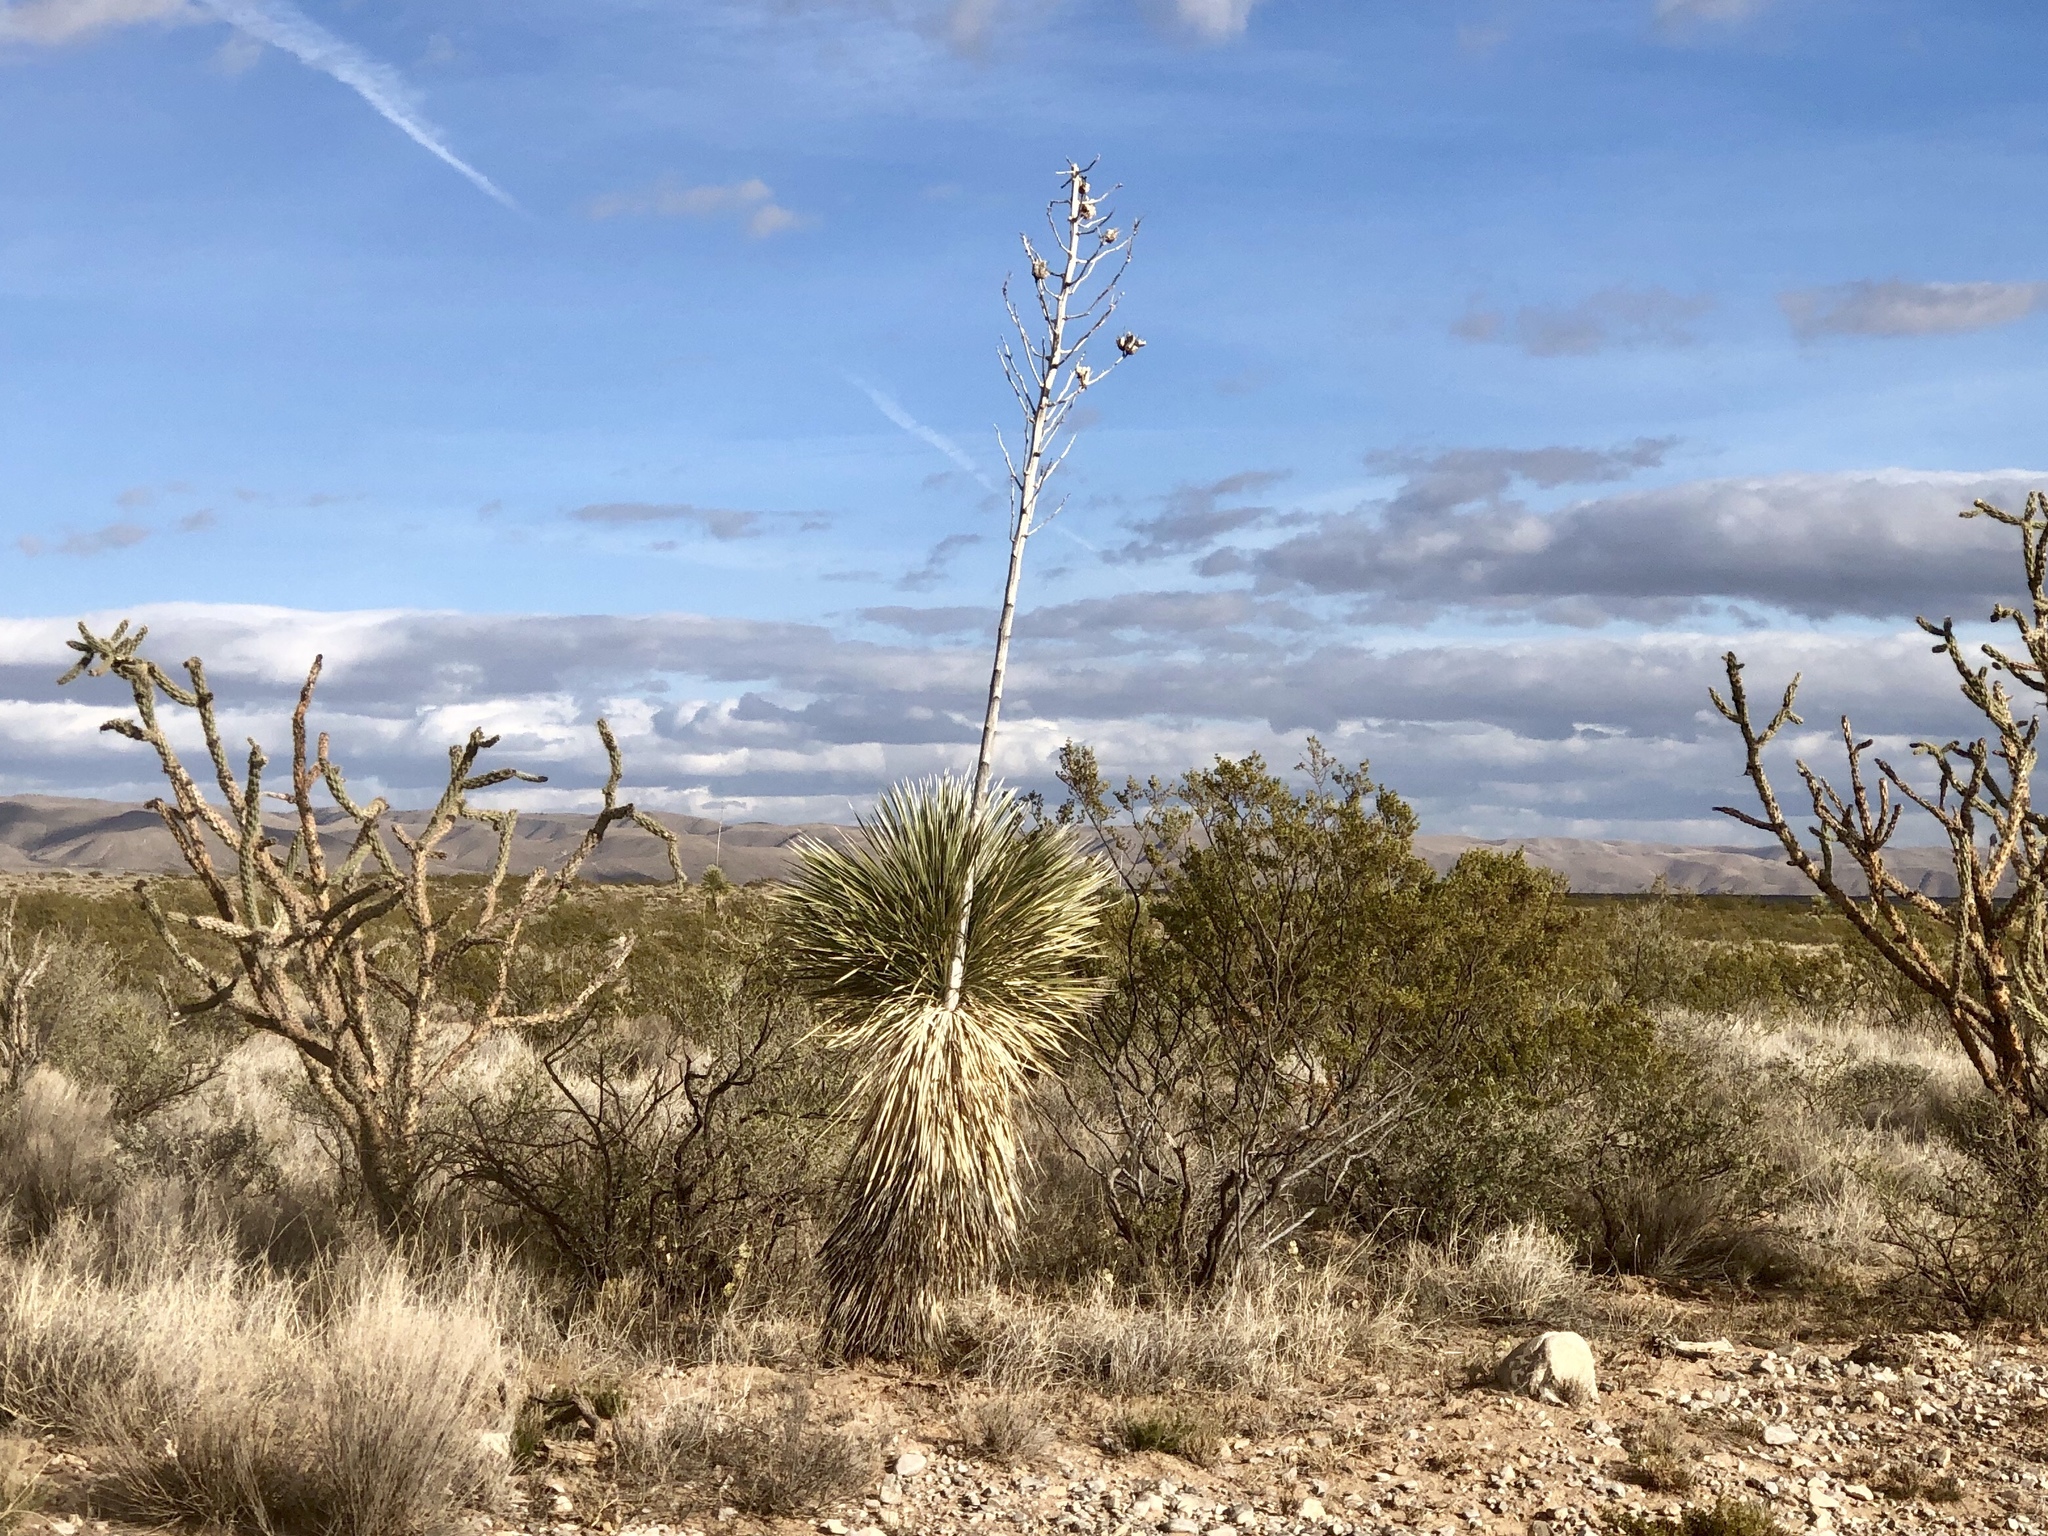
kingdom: Plantae
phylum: Tracheophyta
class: Liliopsida
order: Asparagales
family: Asparagaceae
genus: Yucca
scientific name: Yucca elata
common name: Palmella
